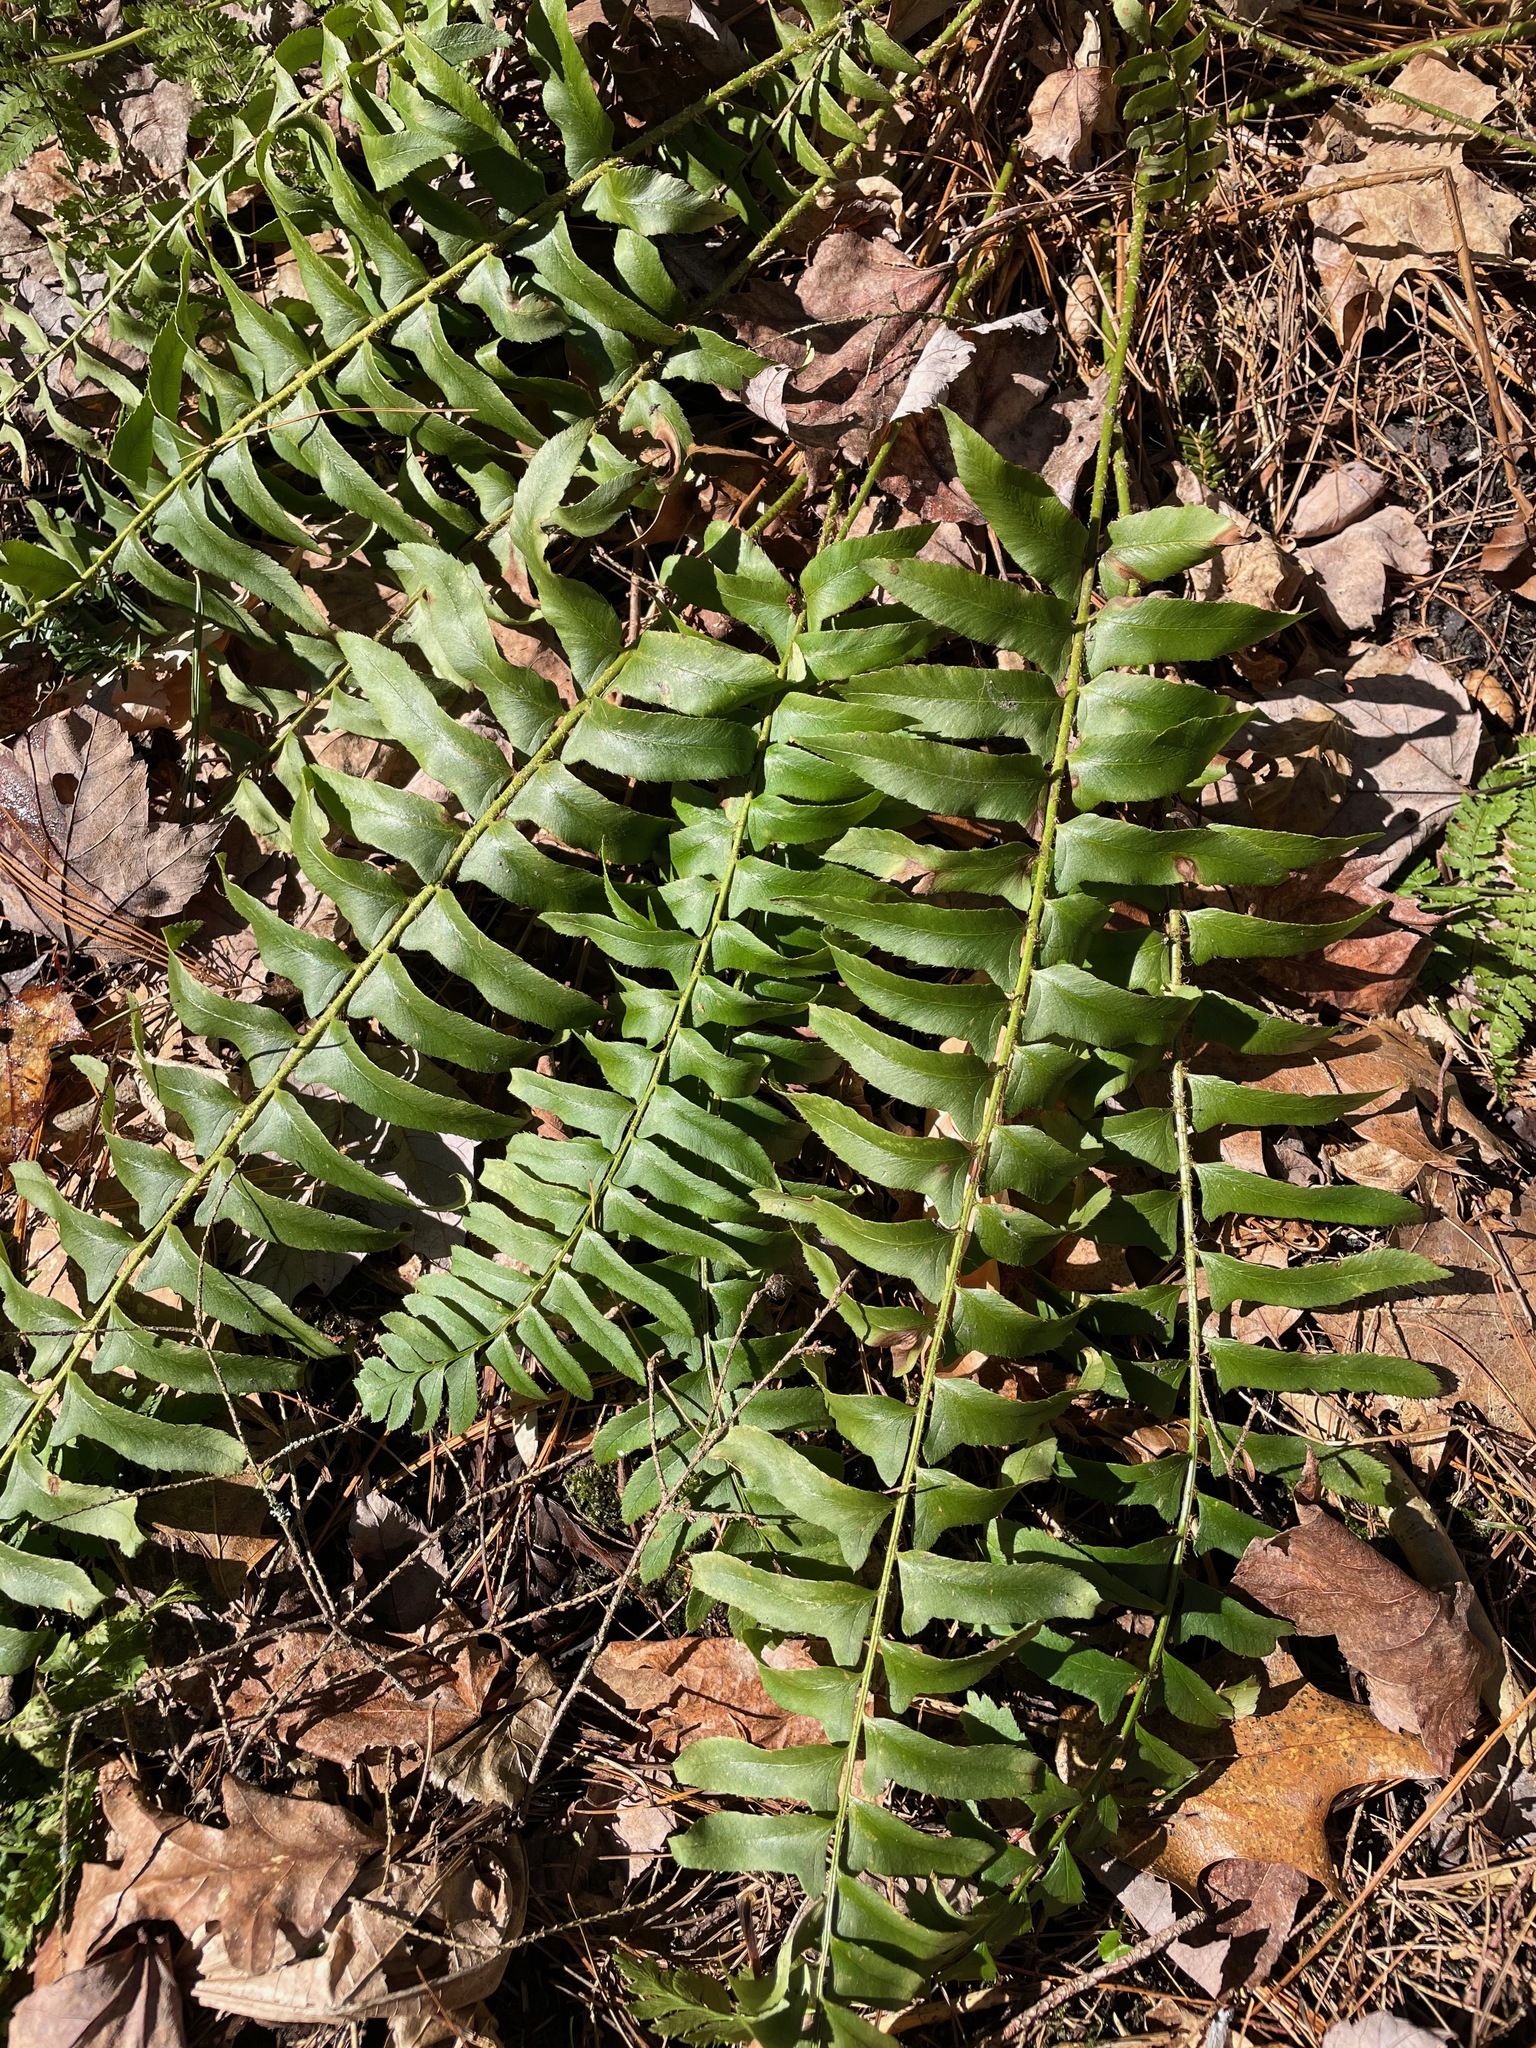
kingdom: Plantae
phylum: Tracheophyta
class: Polypodiopsida
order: Polypodiales
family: Dryopteridaceae
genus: Polystichum
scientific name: Polystichum acrostichoides
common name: Christmas fern
